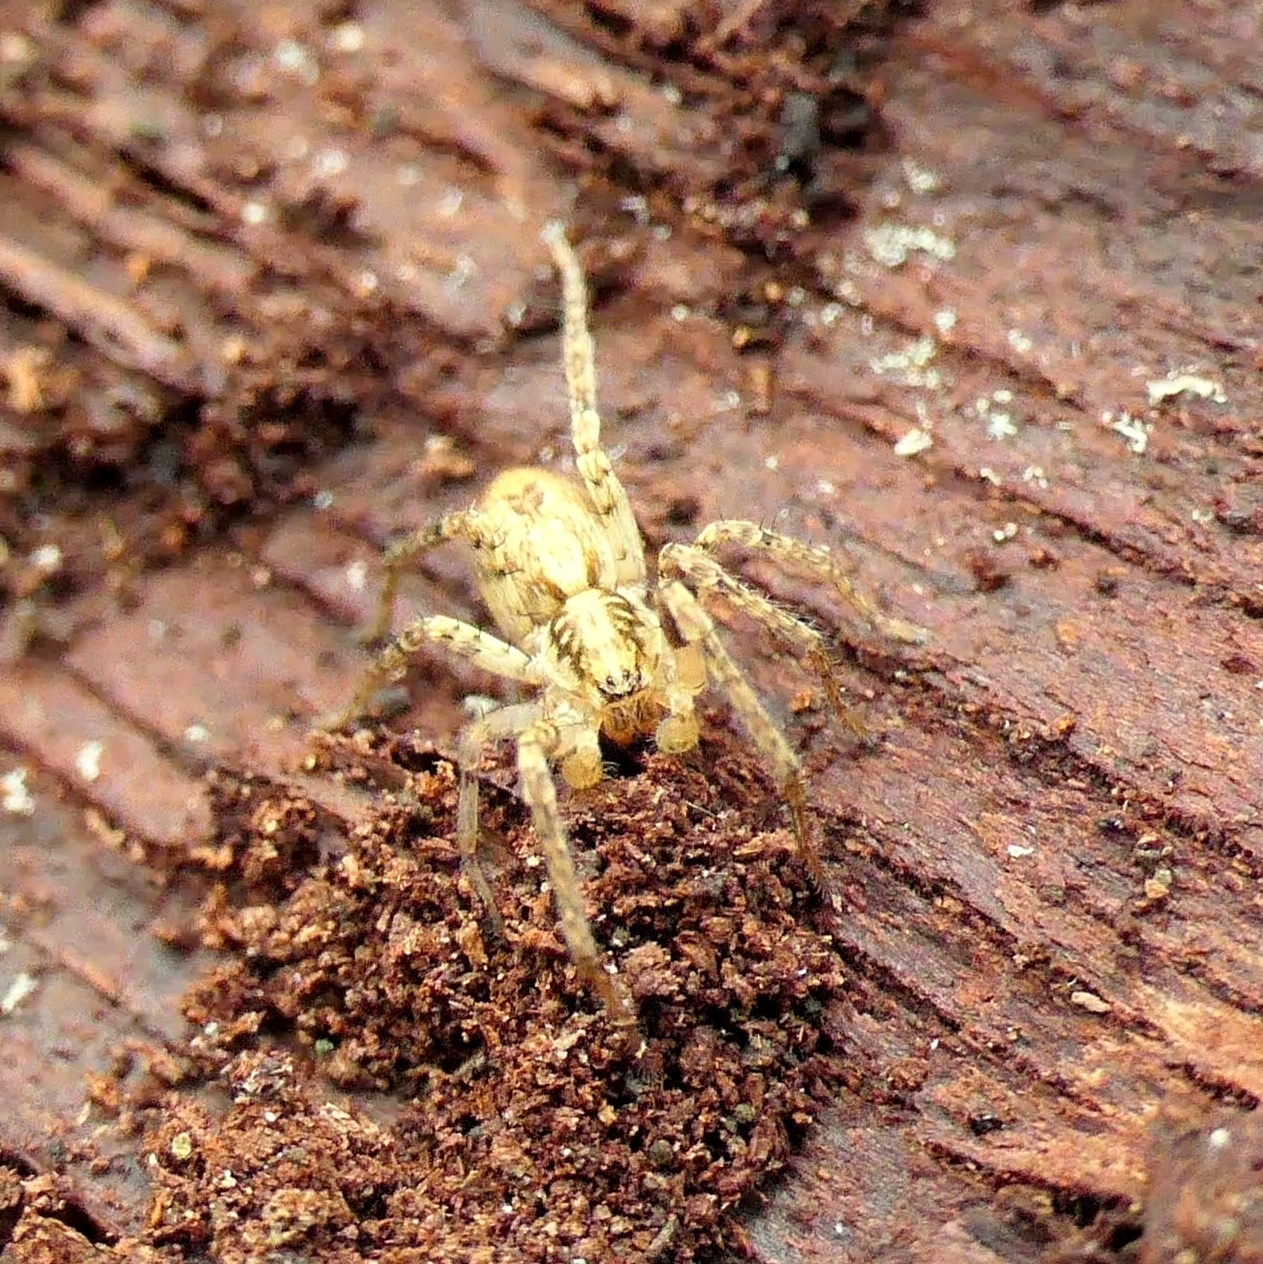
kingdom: Animalia
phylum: Arthropoda
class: Arachnida
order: Araneae
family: Anyphaenidae
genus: Anyphaena
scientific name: Anyphaena accentuata
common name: Buzzing spider
